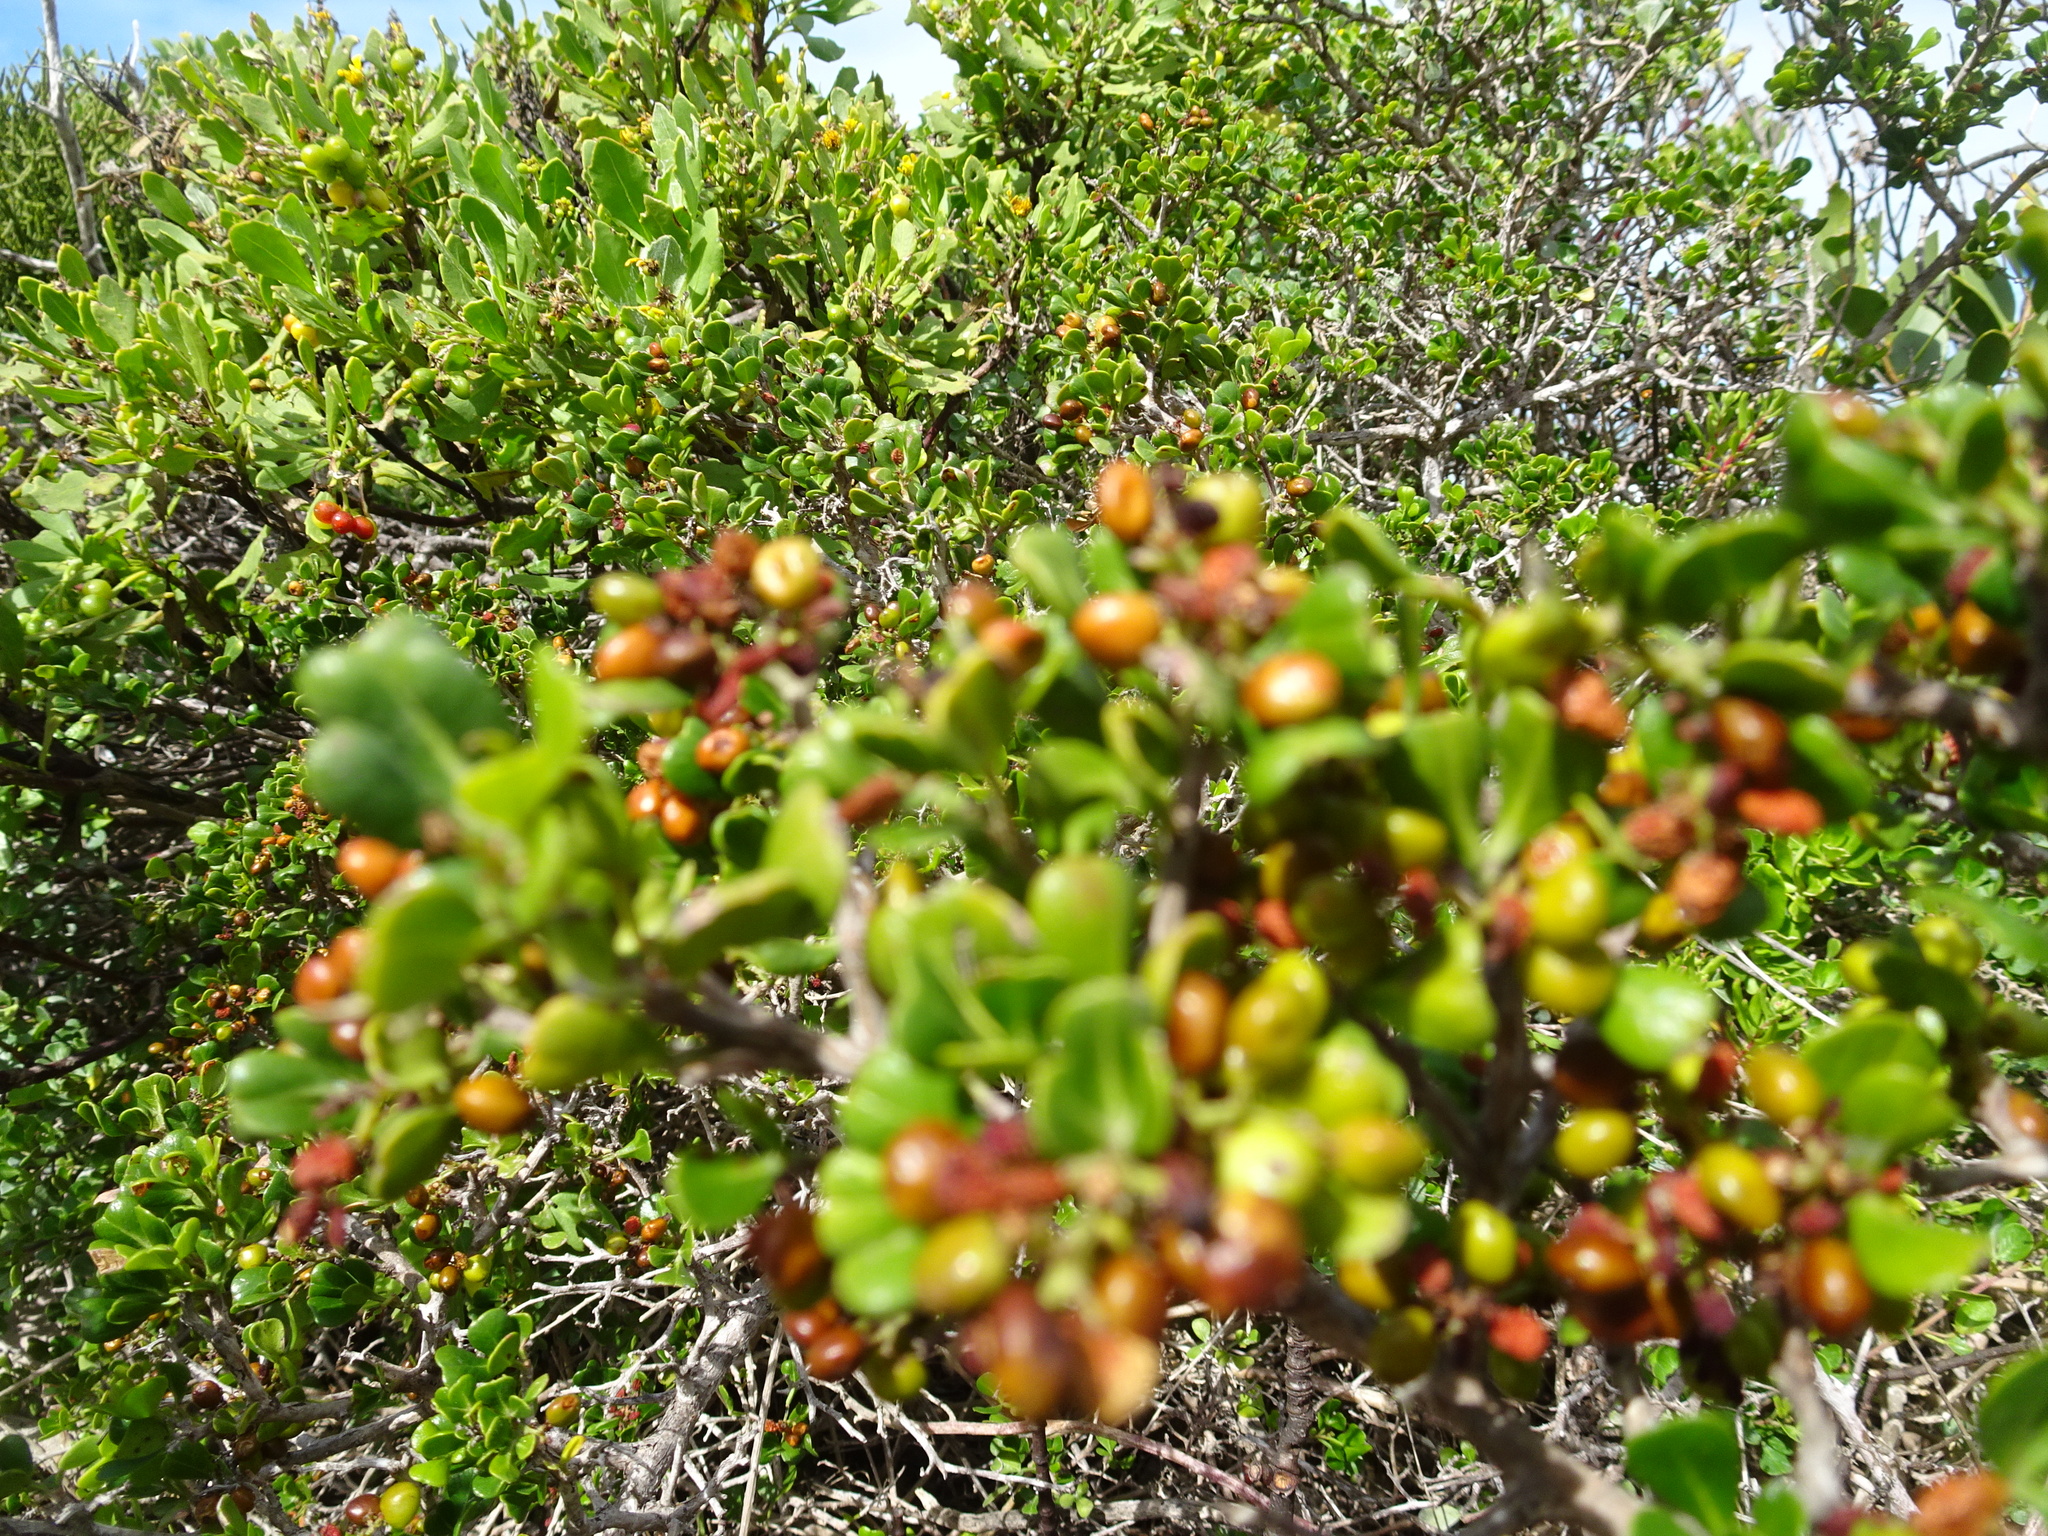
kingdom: Plantae
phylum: Tracheophyta
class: Magnoliopsida
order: Sapindales
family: Anacardiaceae
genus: Searsia
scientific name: Searsia glauca
